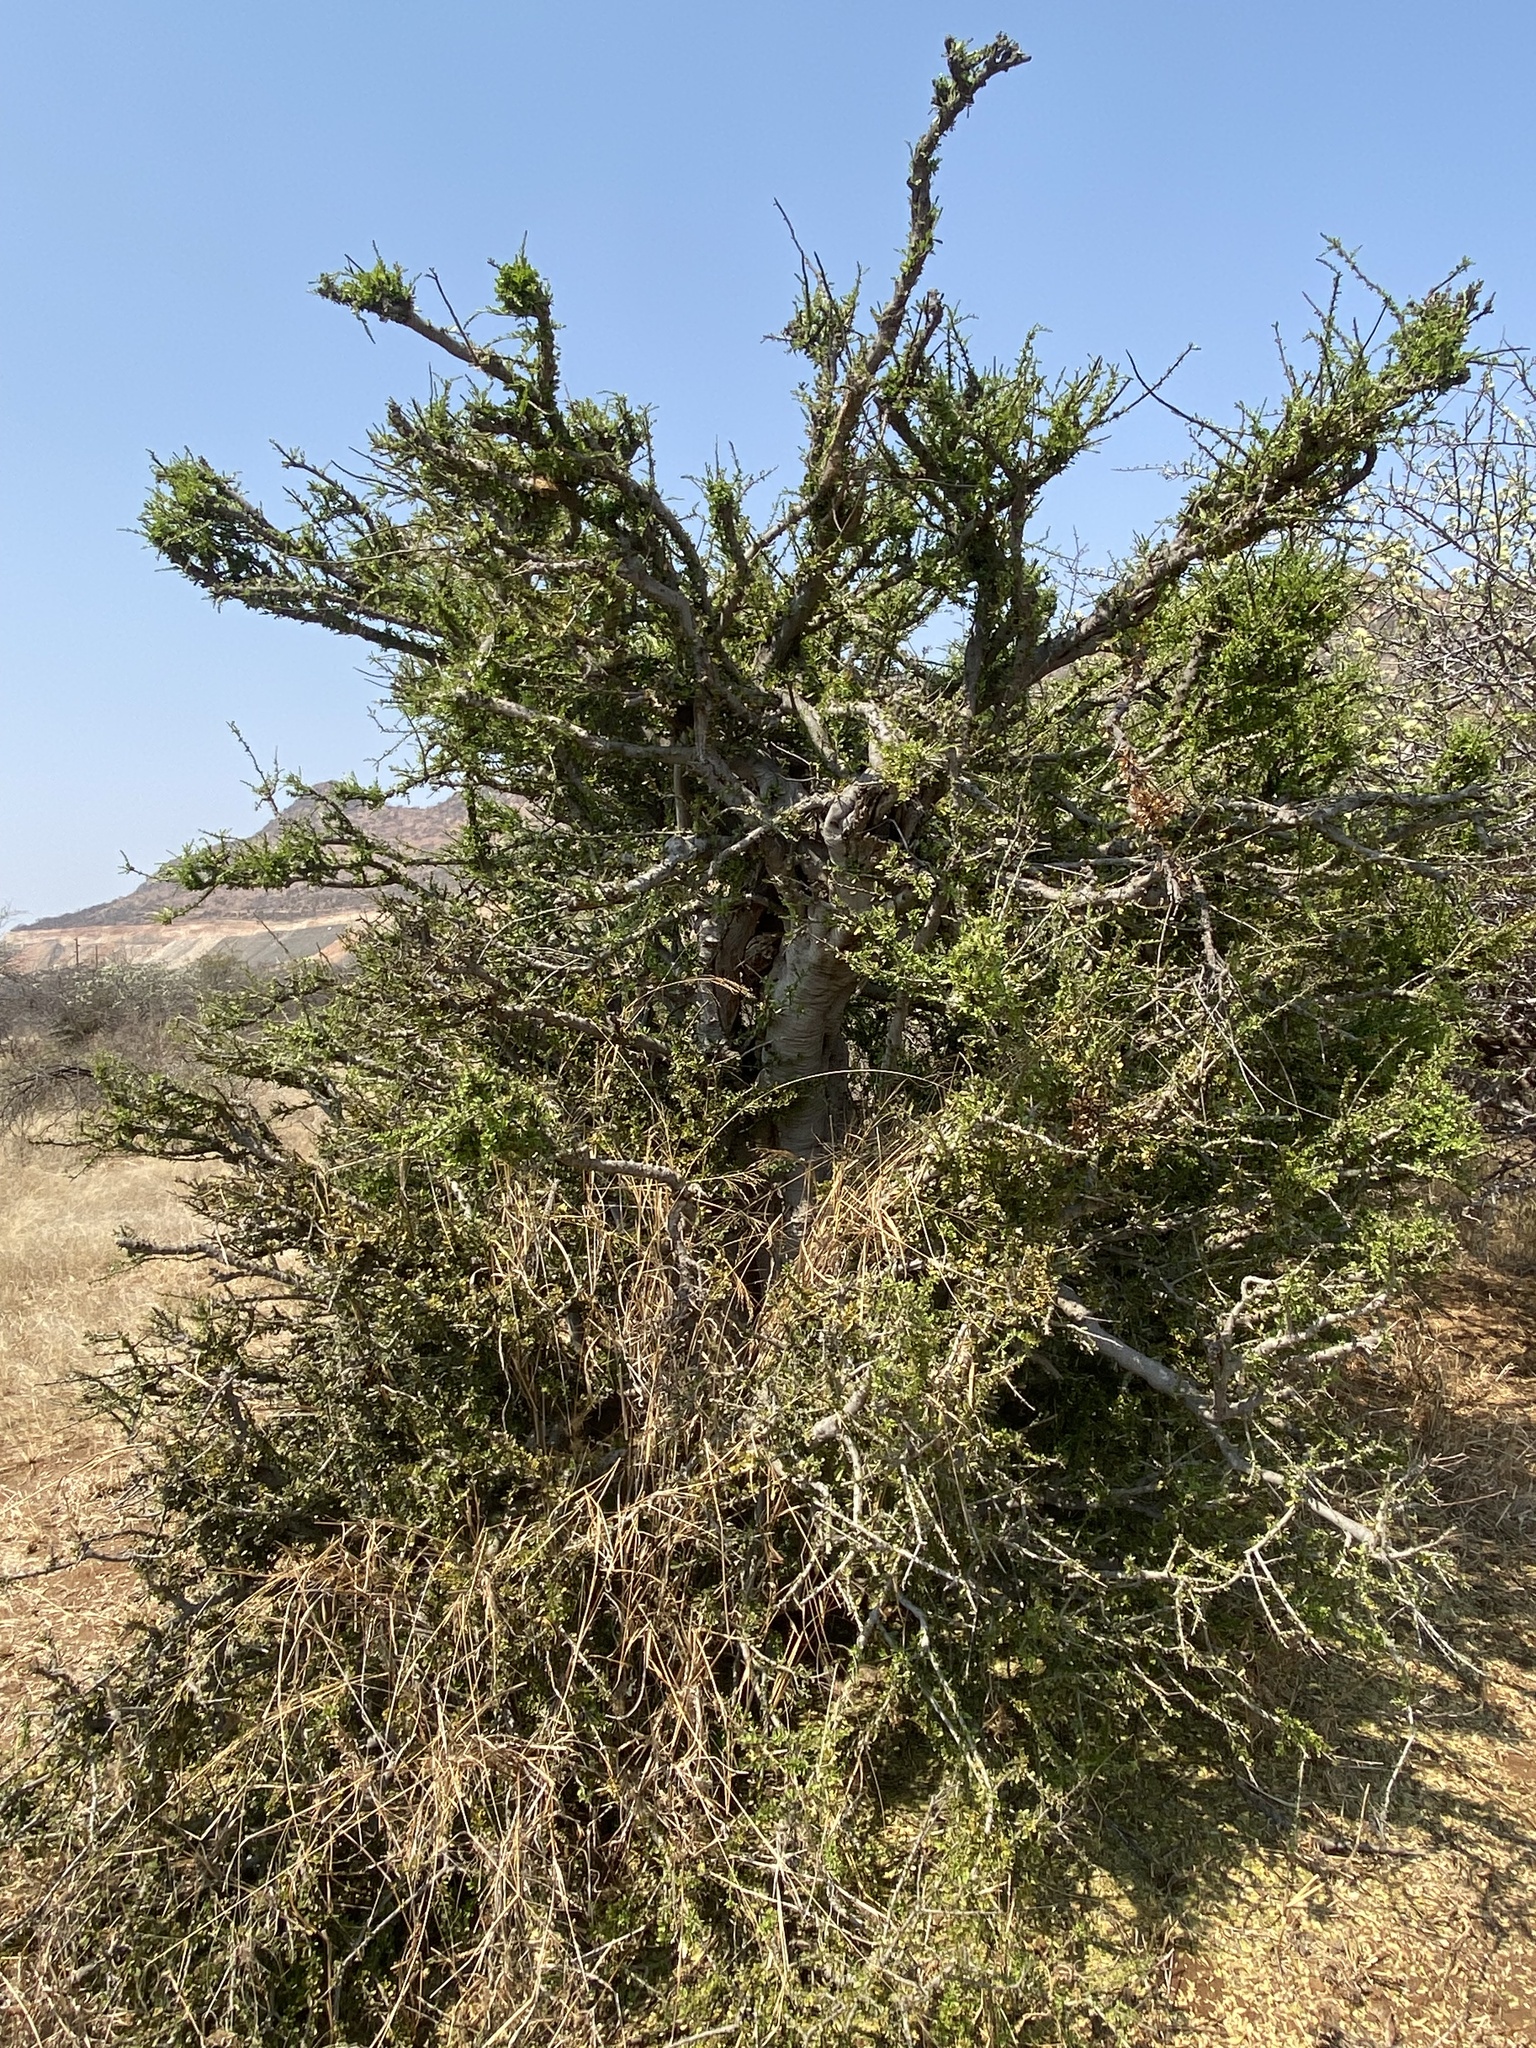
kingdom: Plantae
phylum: Tracheophyta
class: Magnoliopsida
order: Brassicales
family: Capparaceae
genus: Boscia
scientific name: Boscia foetida
